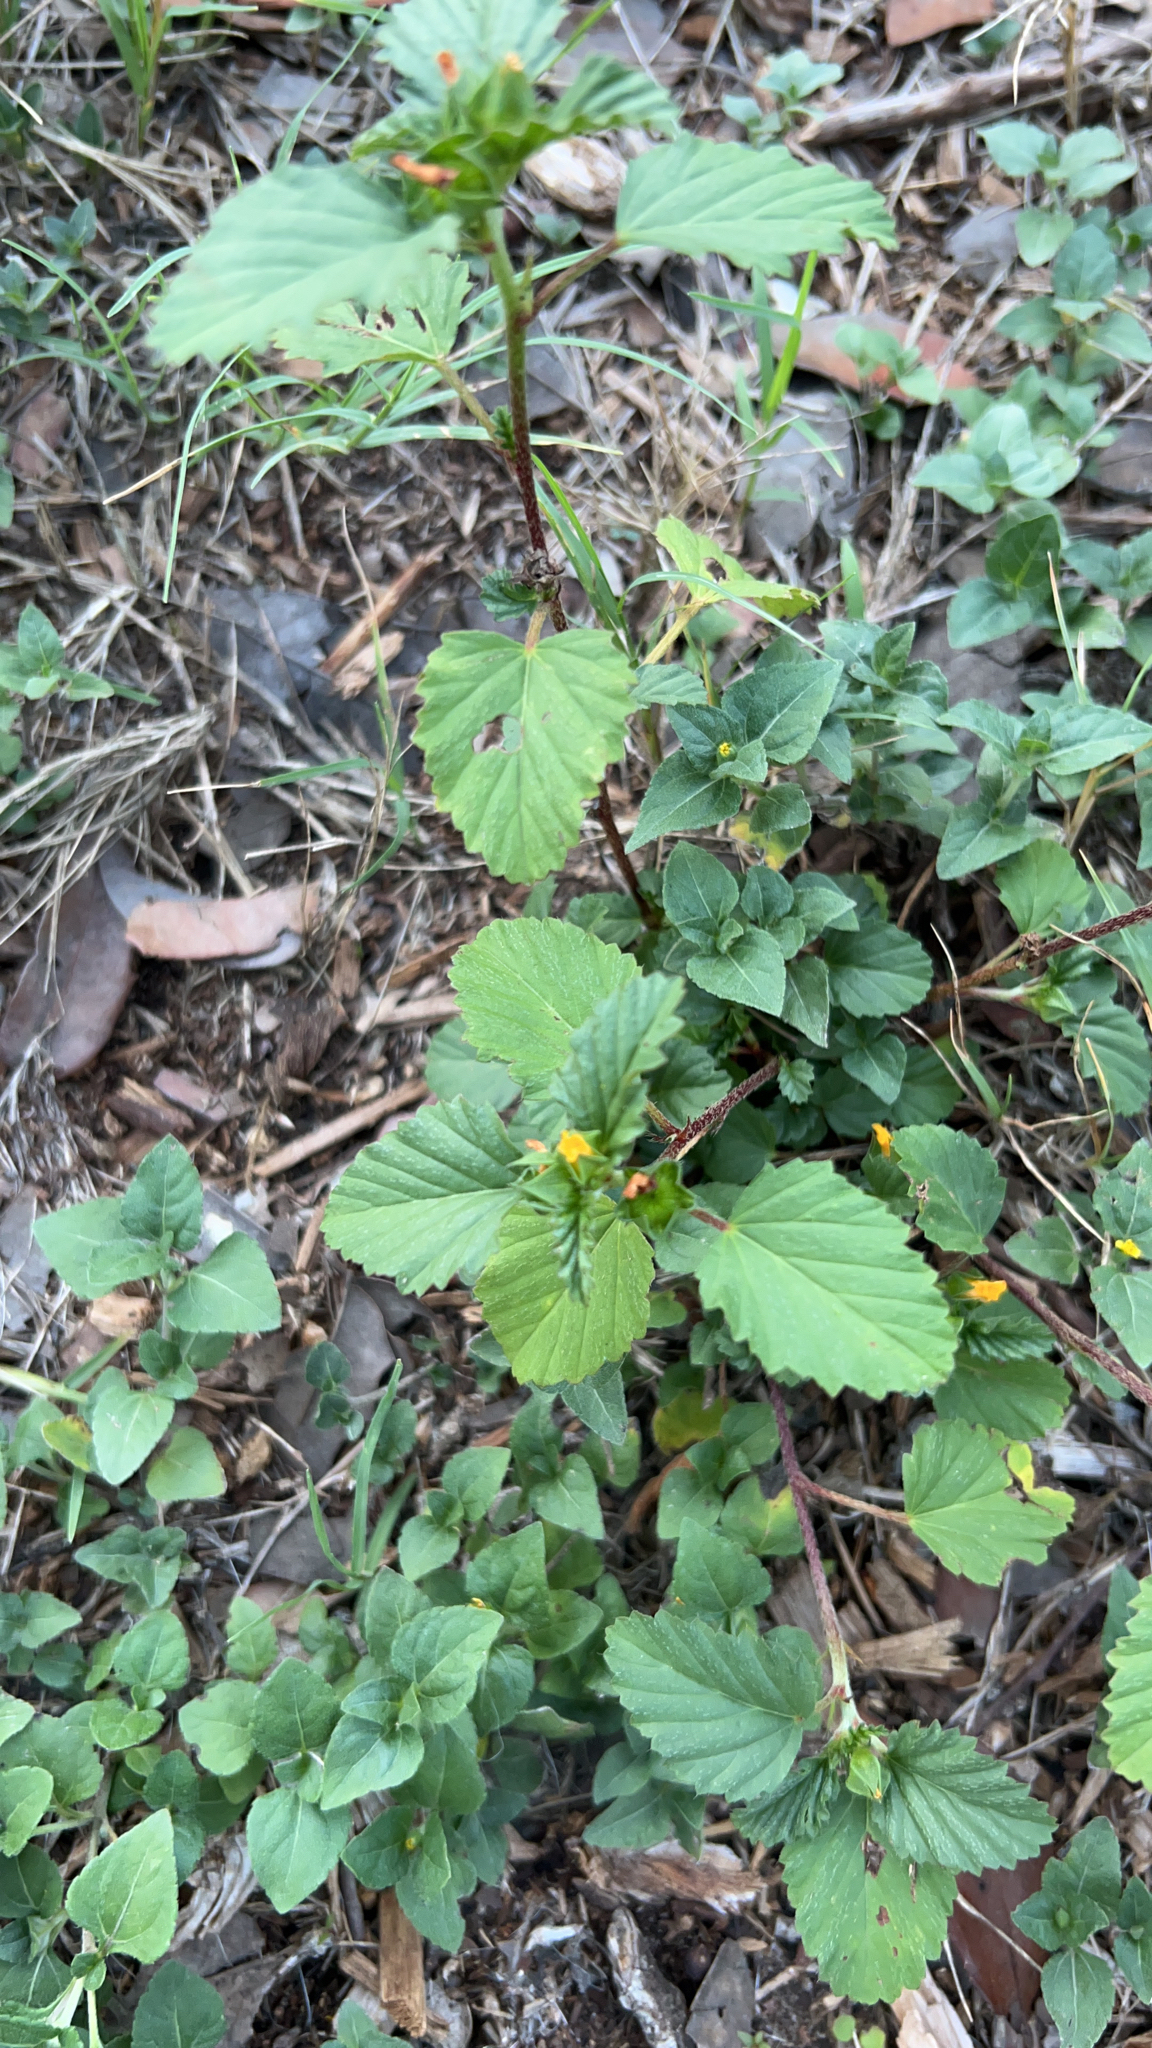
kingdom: Plantae
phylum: Tracheophyta
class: Magnoliopsida
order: Malvales
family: Malvaceae
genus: Malvastrum
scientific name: Malvastrum coromandelianum
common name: Threelobe false mallow
